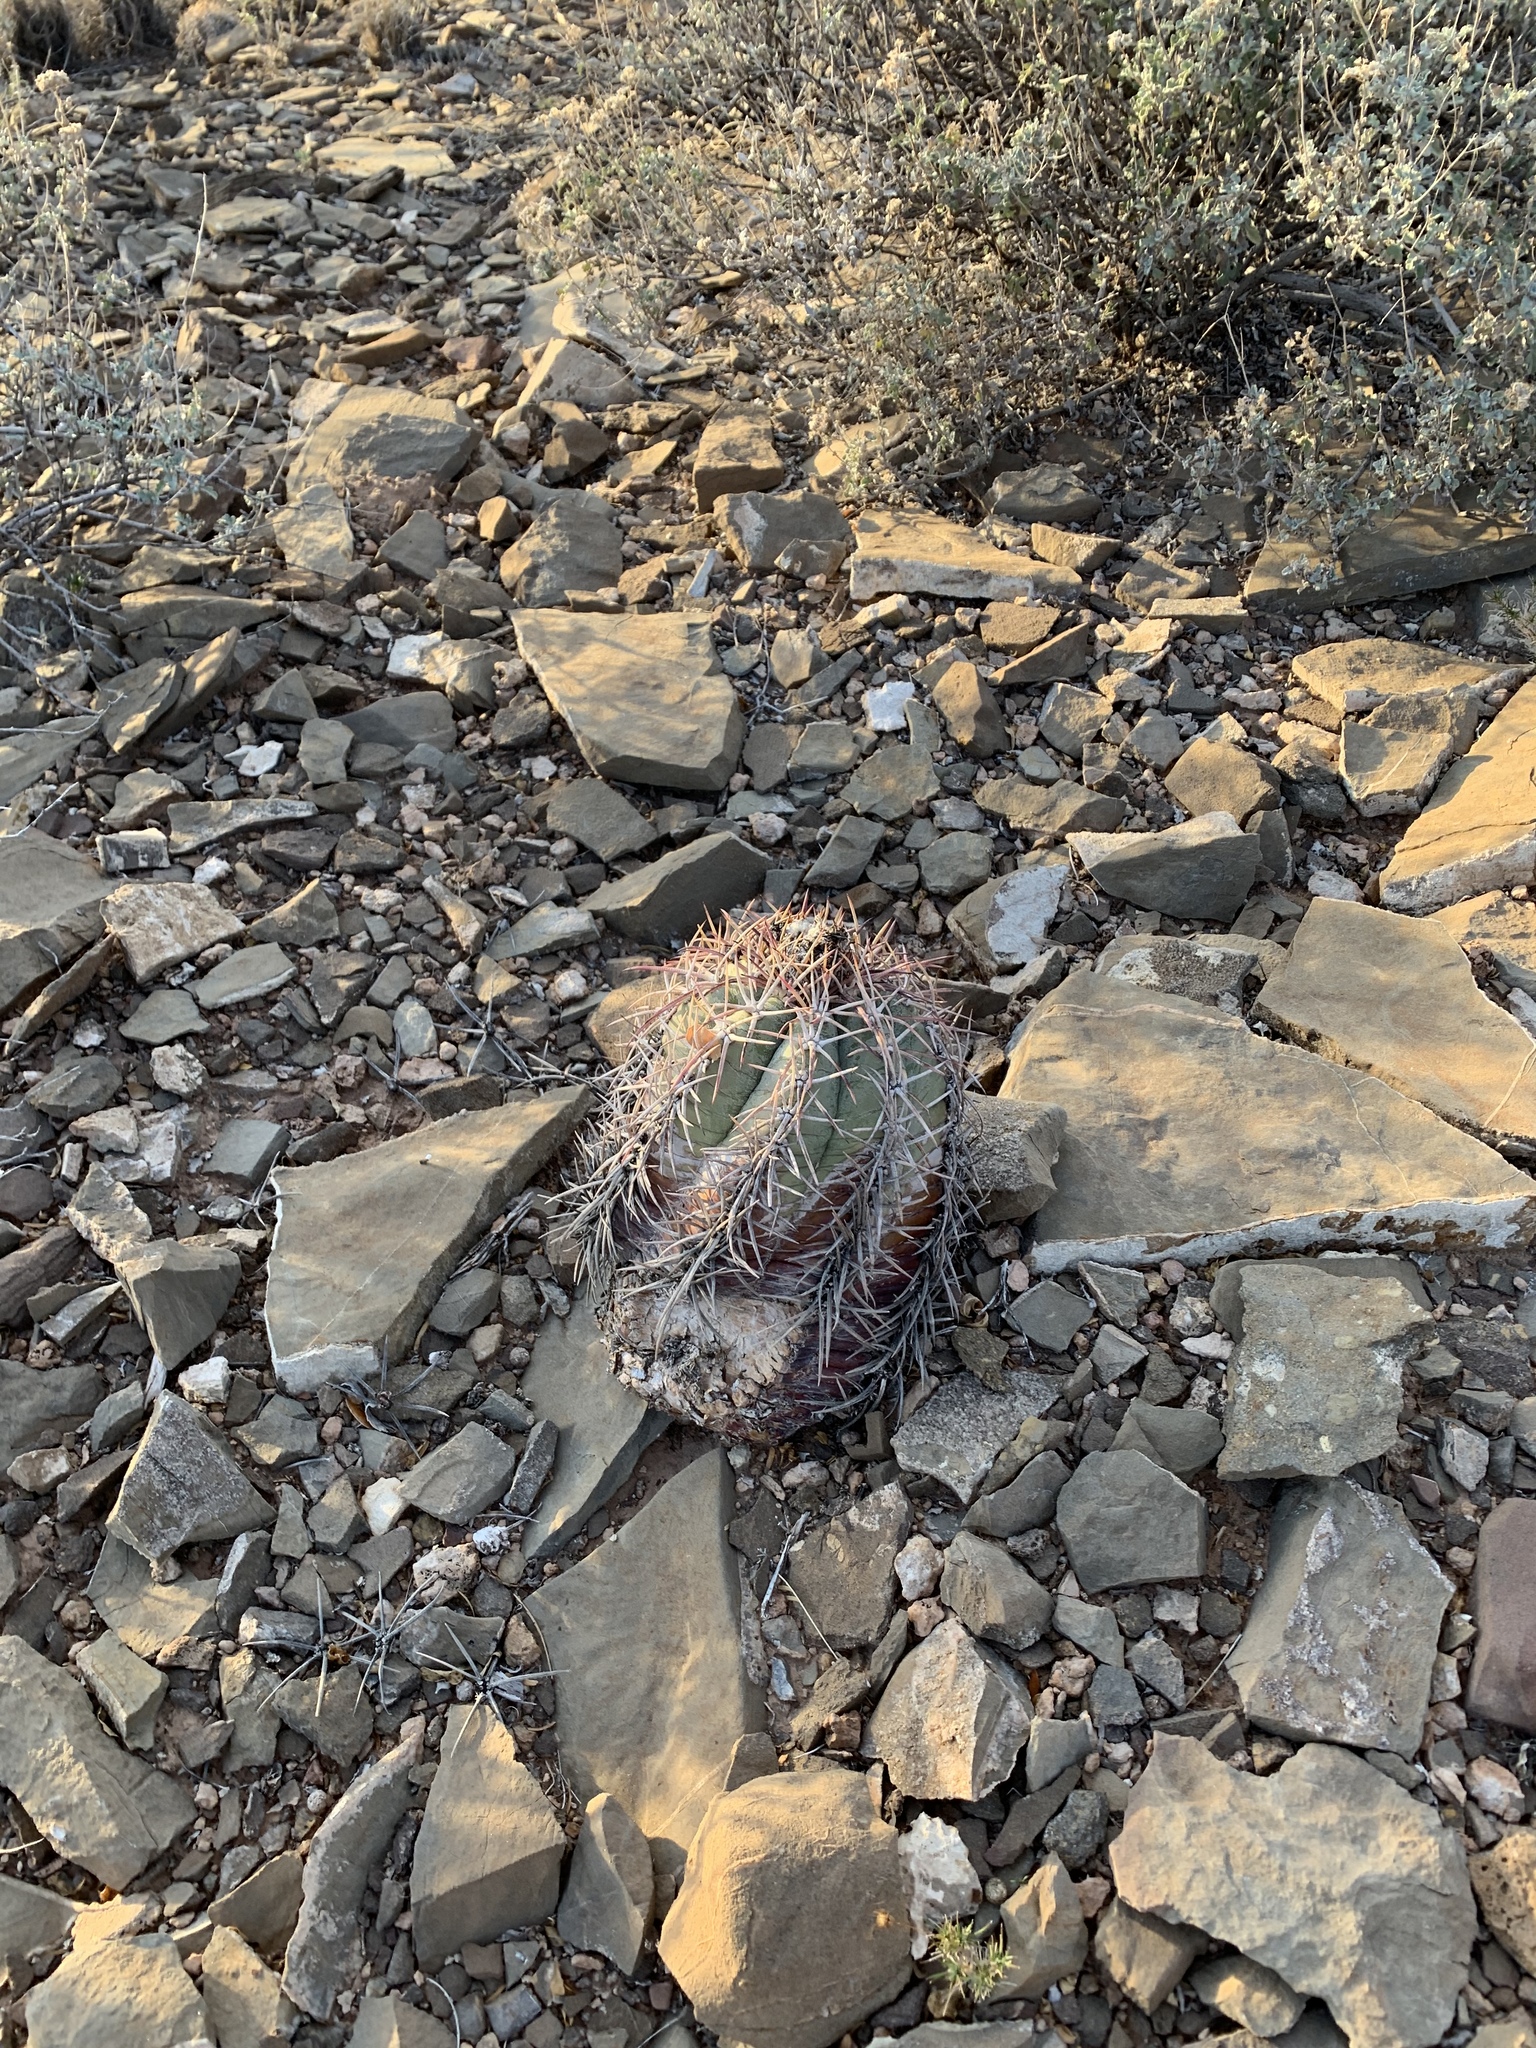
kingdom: Plantae
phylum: Tracheophyta
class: Magnoliopsida
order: Caryophyllales
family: Cactaceae
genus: Echinocactus
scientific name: Echinocactus horizonthalonius
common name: Devilshead
